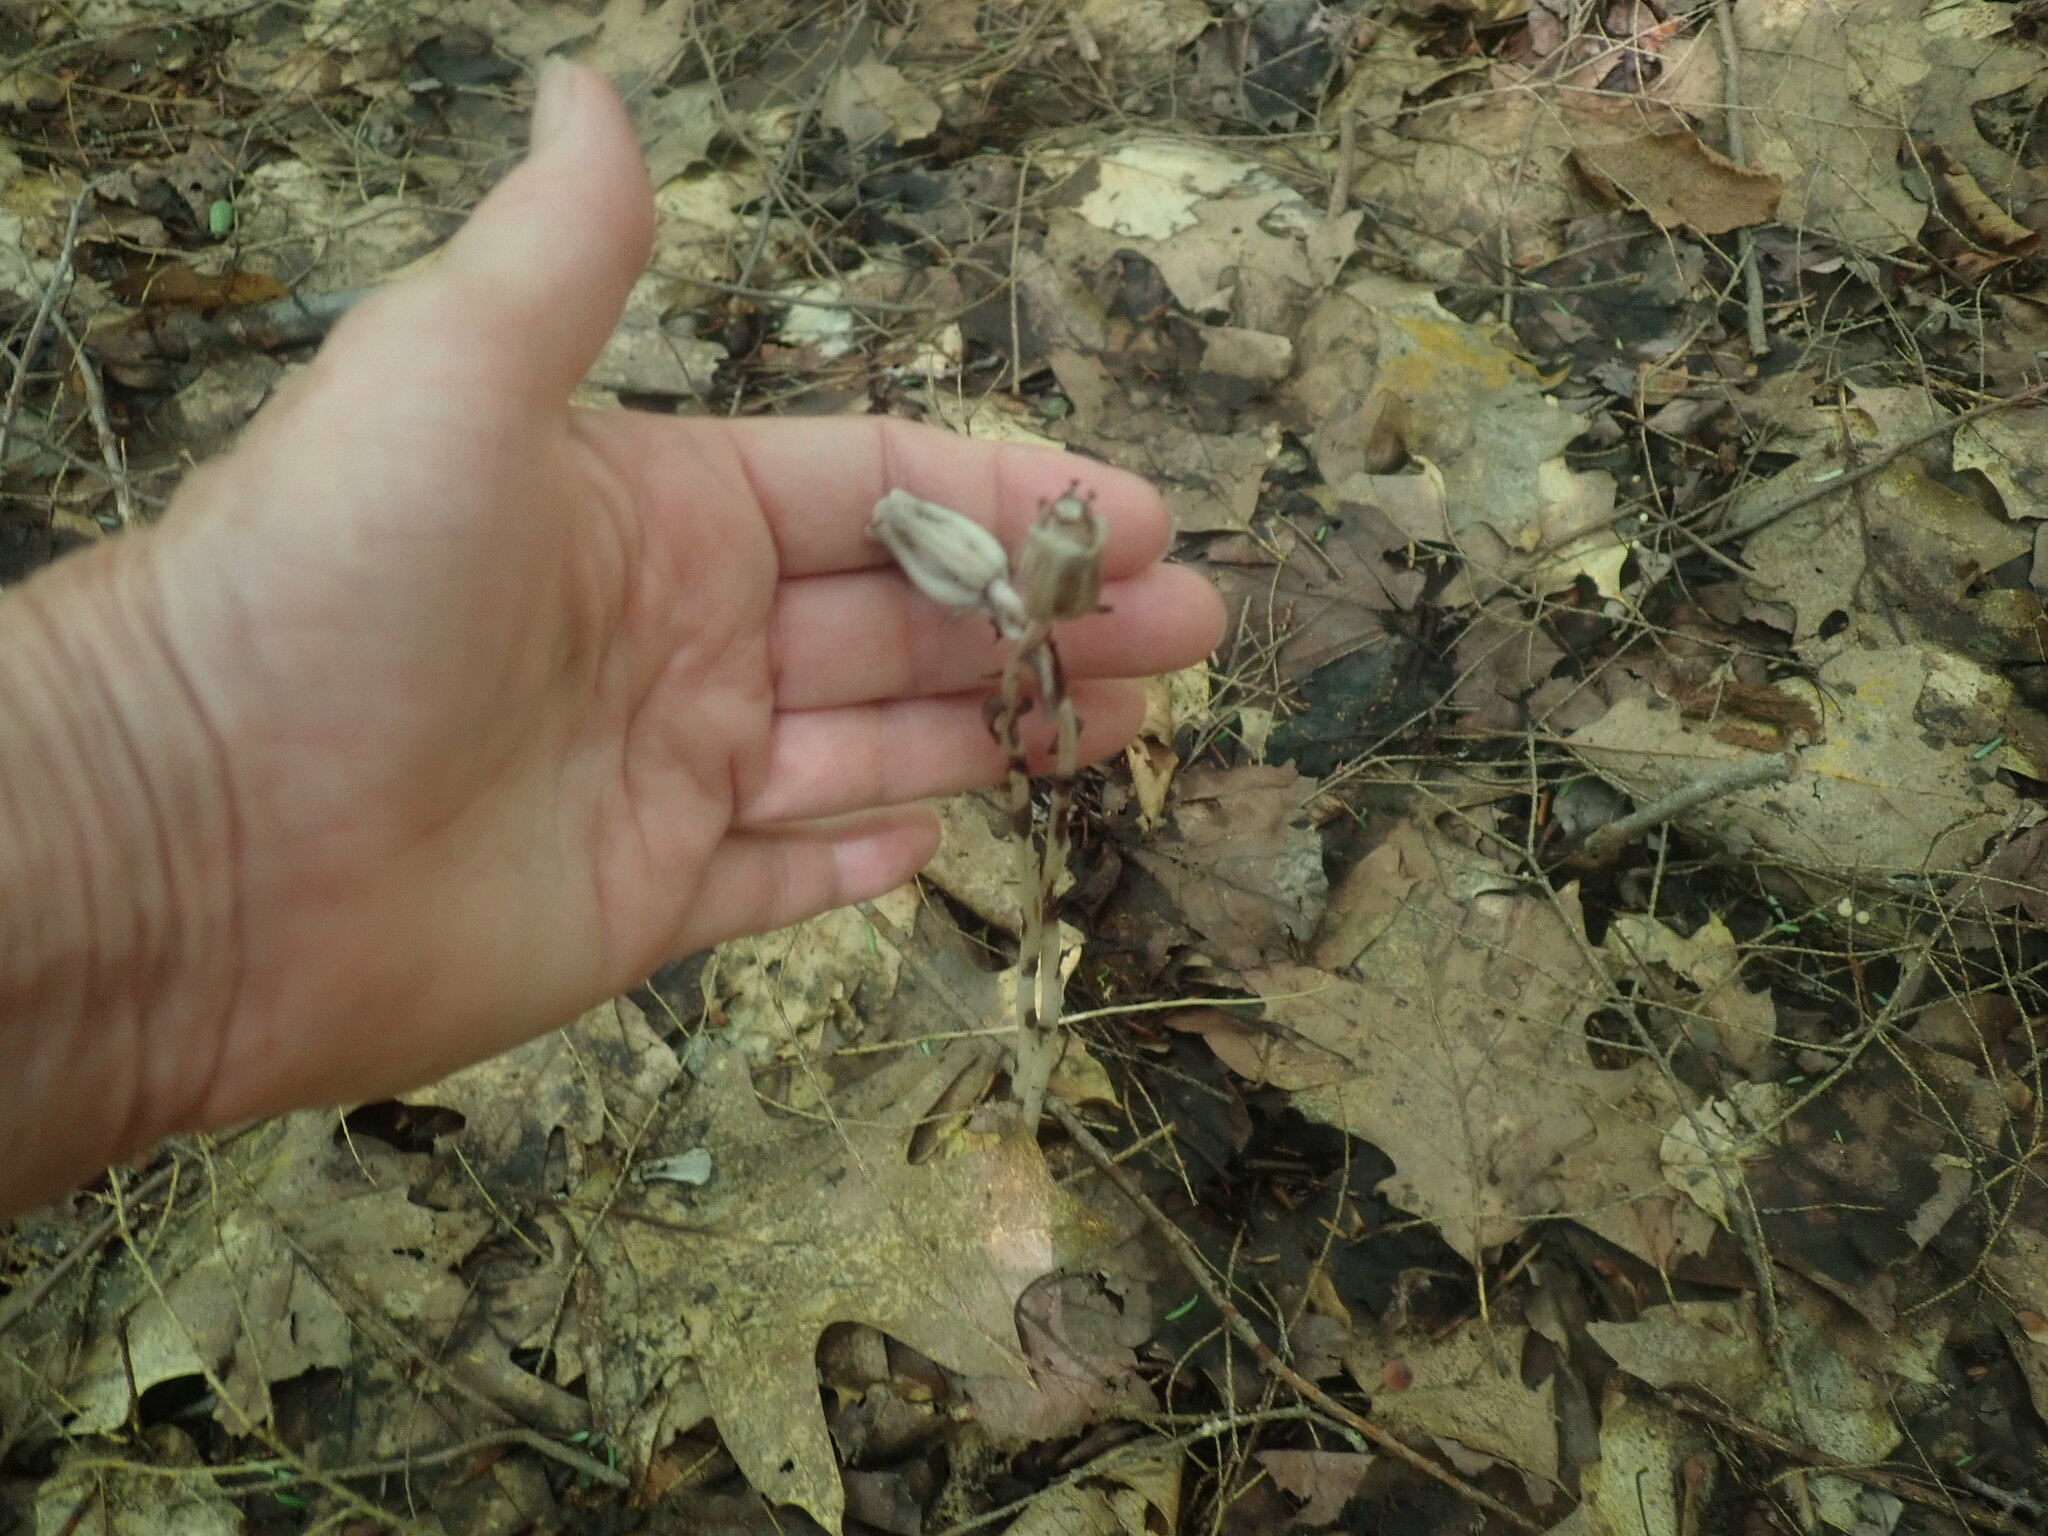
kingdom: Plantae
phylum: Tracheophyta
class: Magnoliopsida
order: Ericales
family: Ericaceae
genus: Monotropa
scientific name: Monotropa uniflora
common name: Convulsion root
